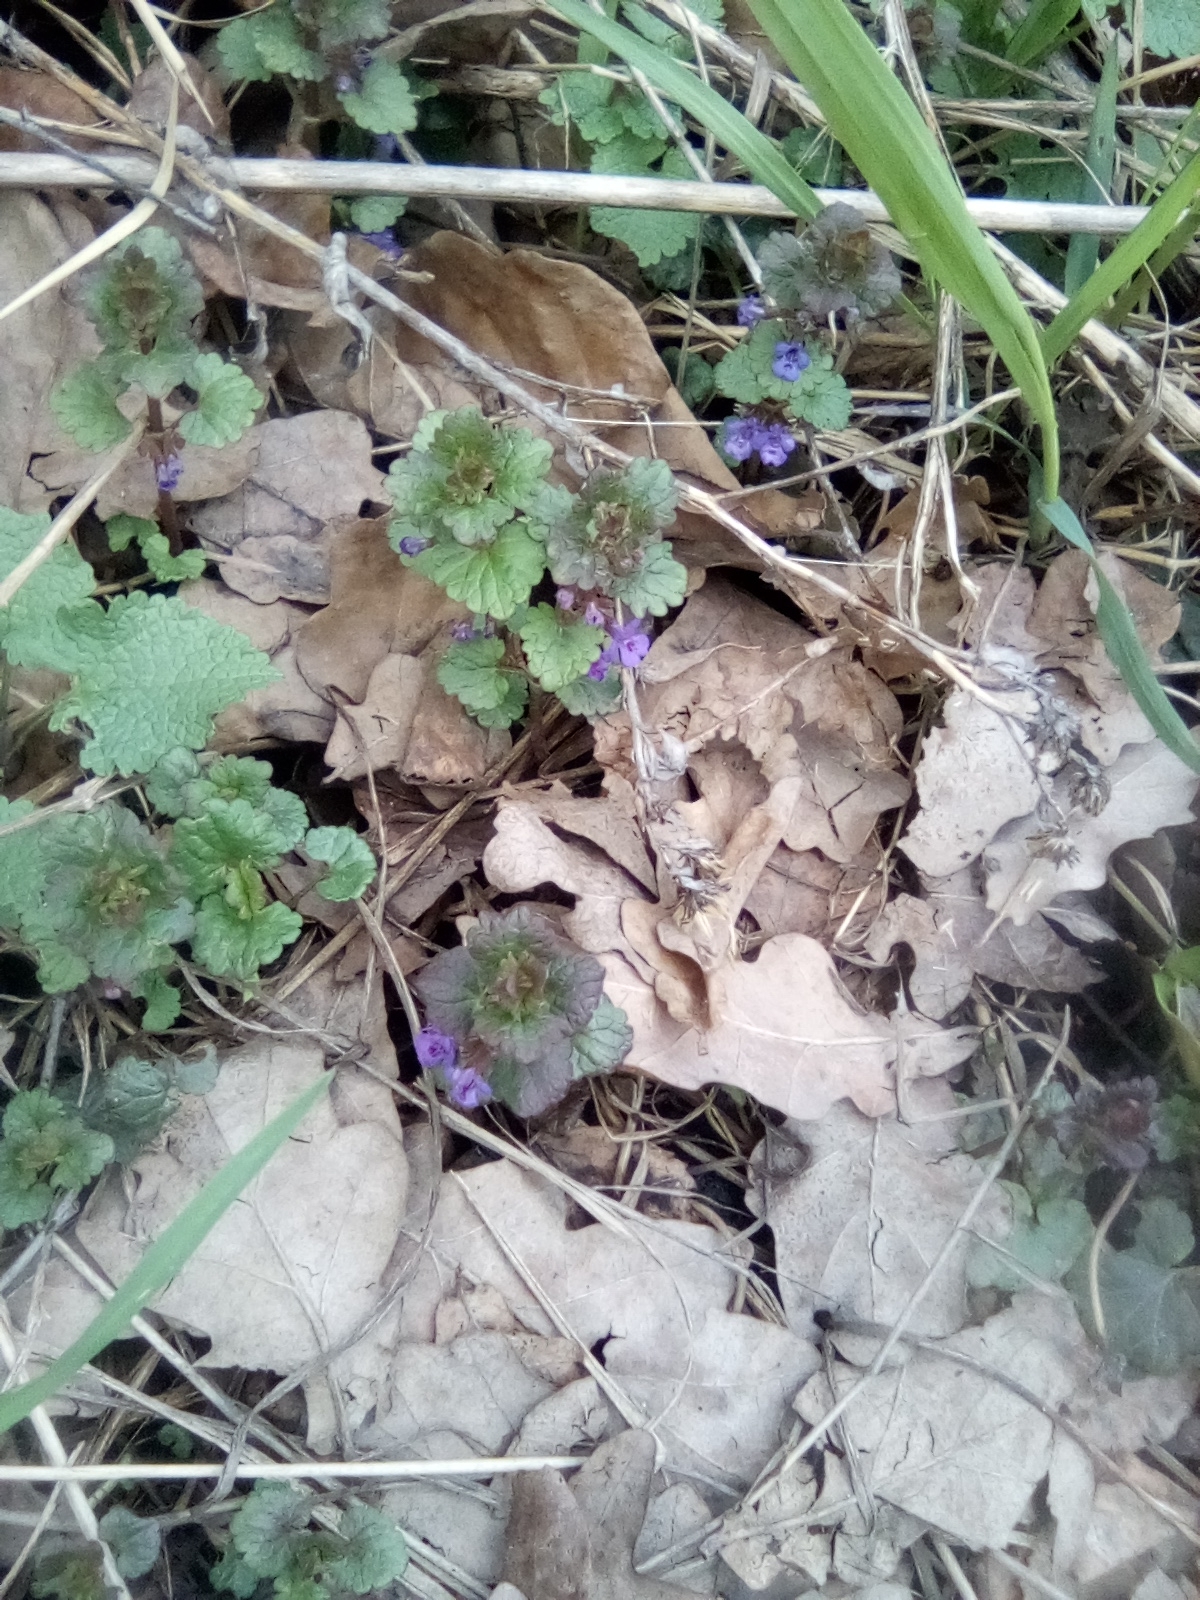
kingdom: Plantae
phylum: Tracheophyta
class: Magnoliopsida
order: Lamiales
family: Lamiaceae
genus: Glechoma
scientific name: Glechoma hederacea
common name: Ground ivy
